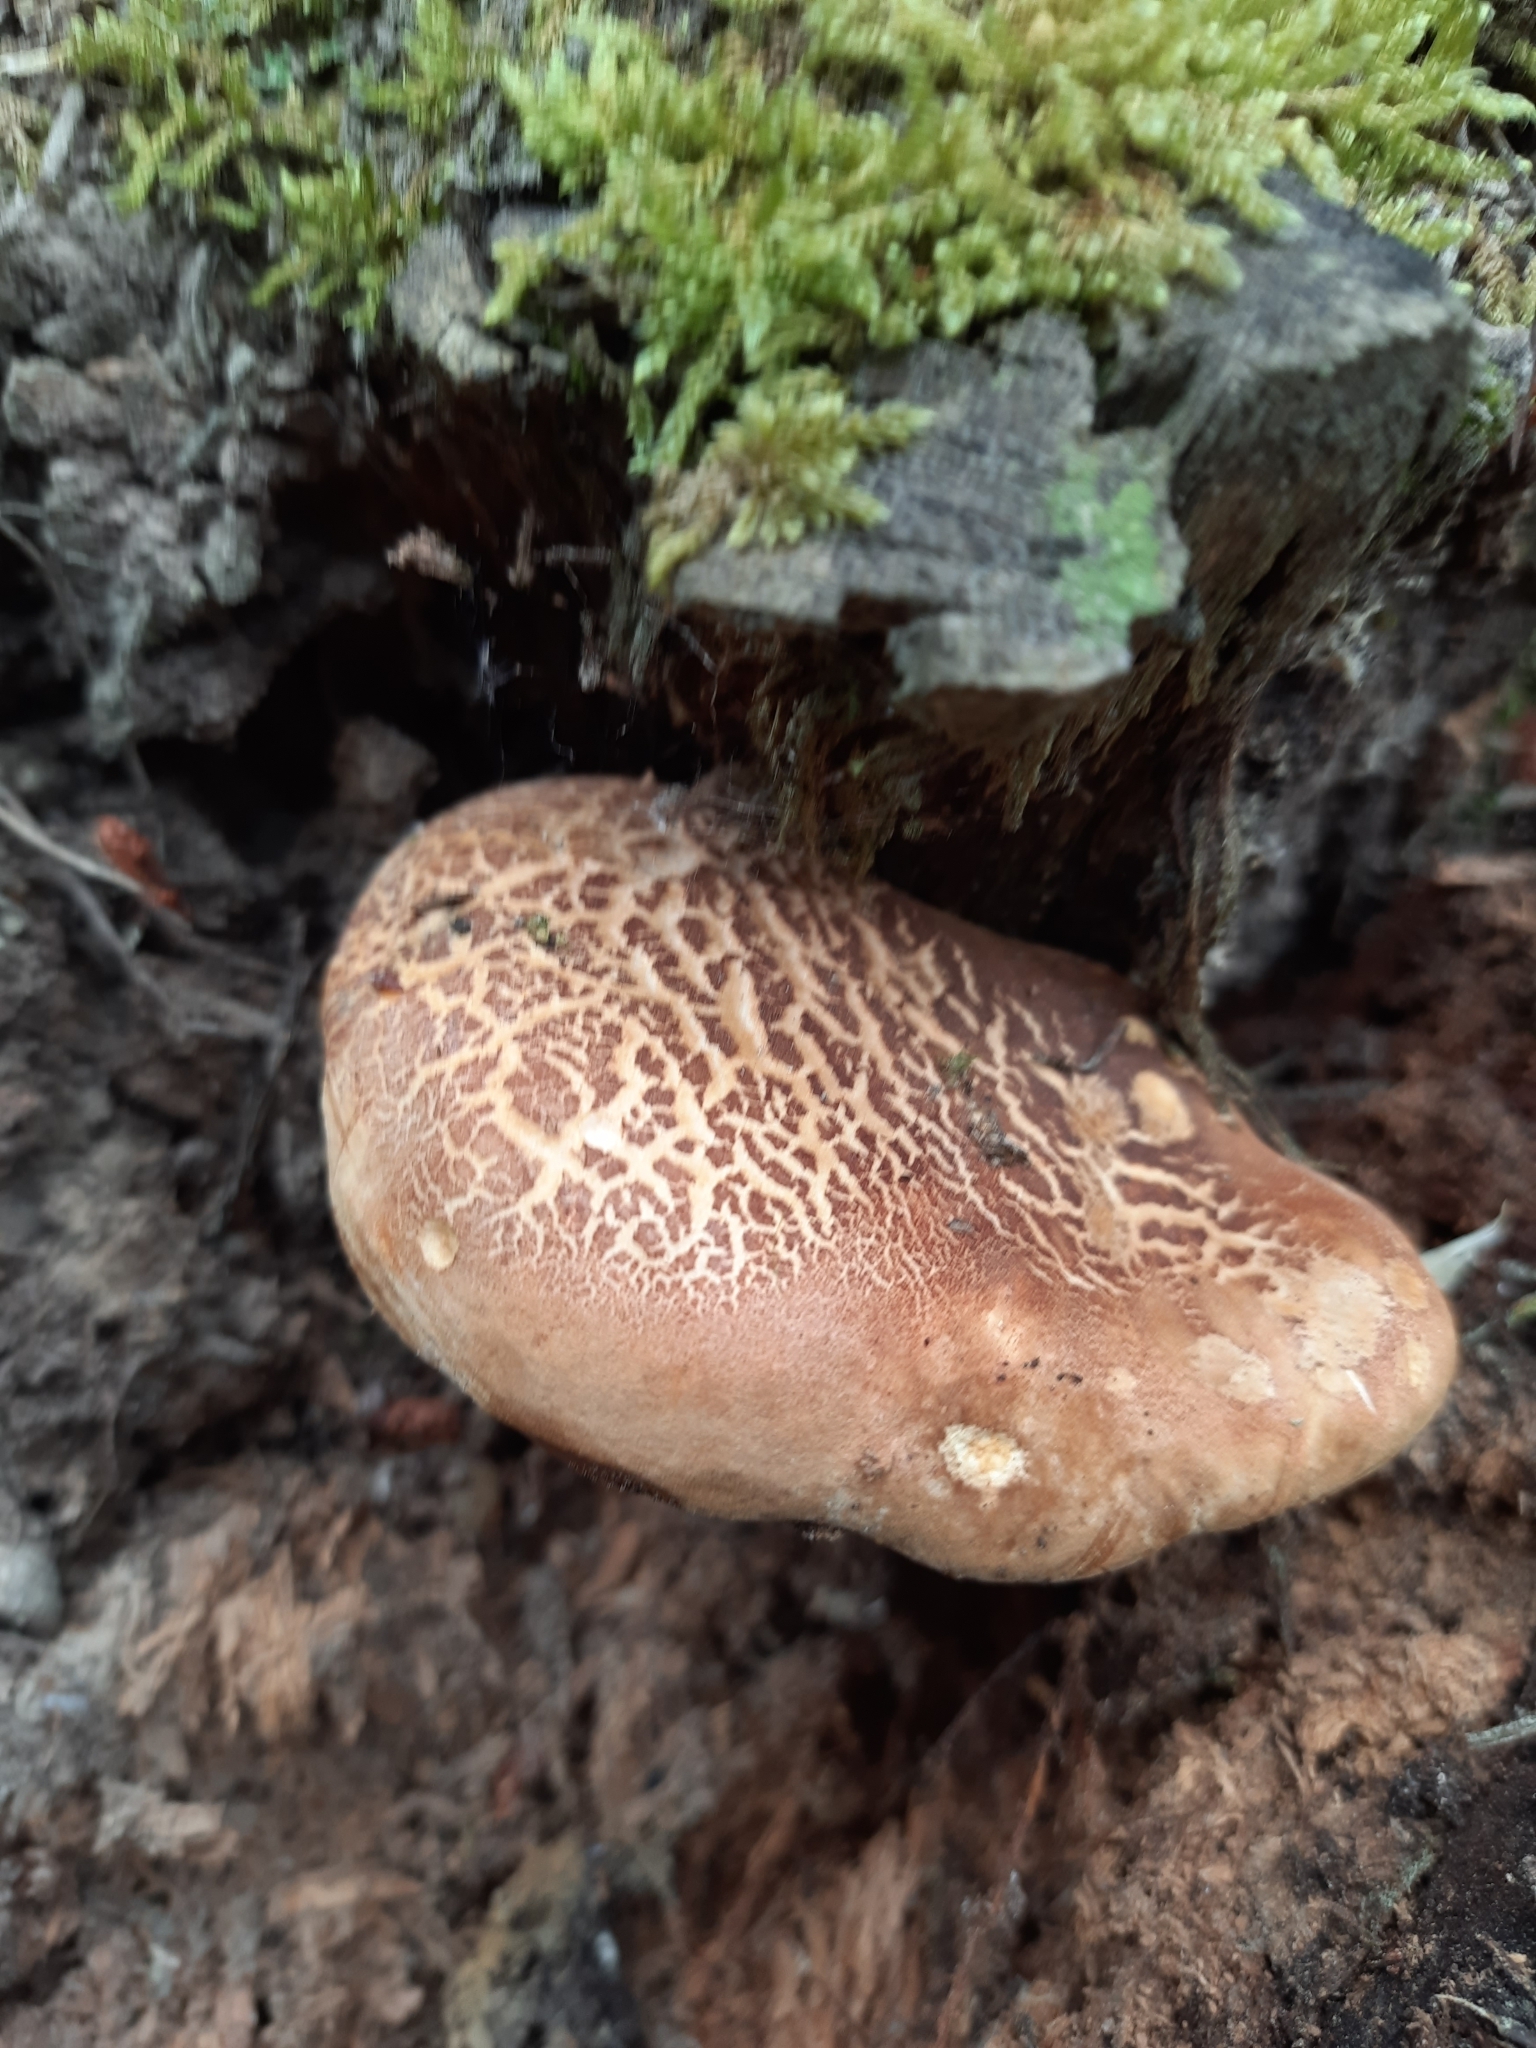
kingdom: Fungi
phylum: Basidiomycota
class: Agaricomycetes
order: Boletales
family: Tapinellaceae
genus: Tapinella
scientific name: Tapinella atrotomentosa
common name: Velvet rollrim
